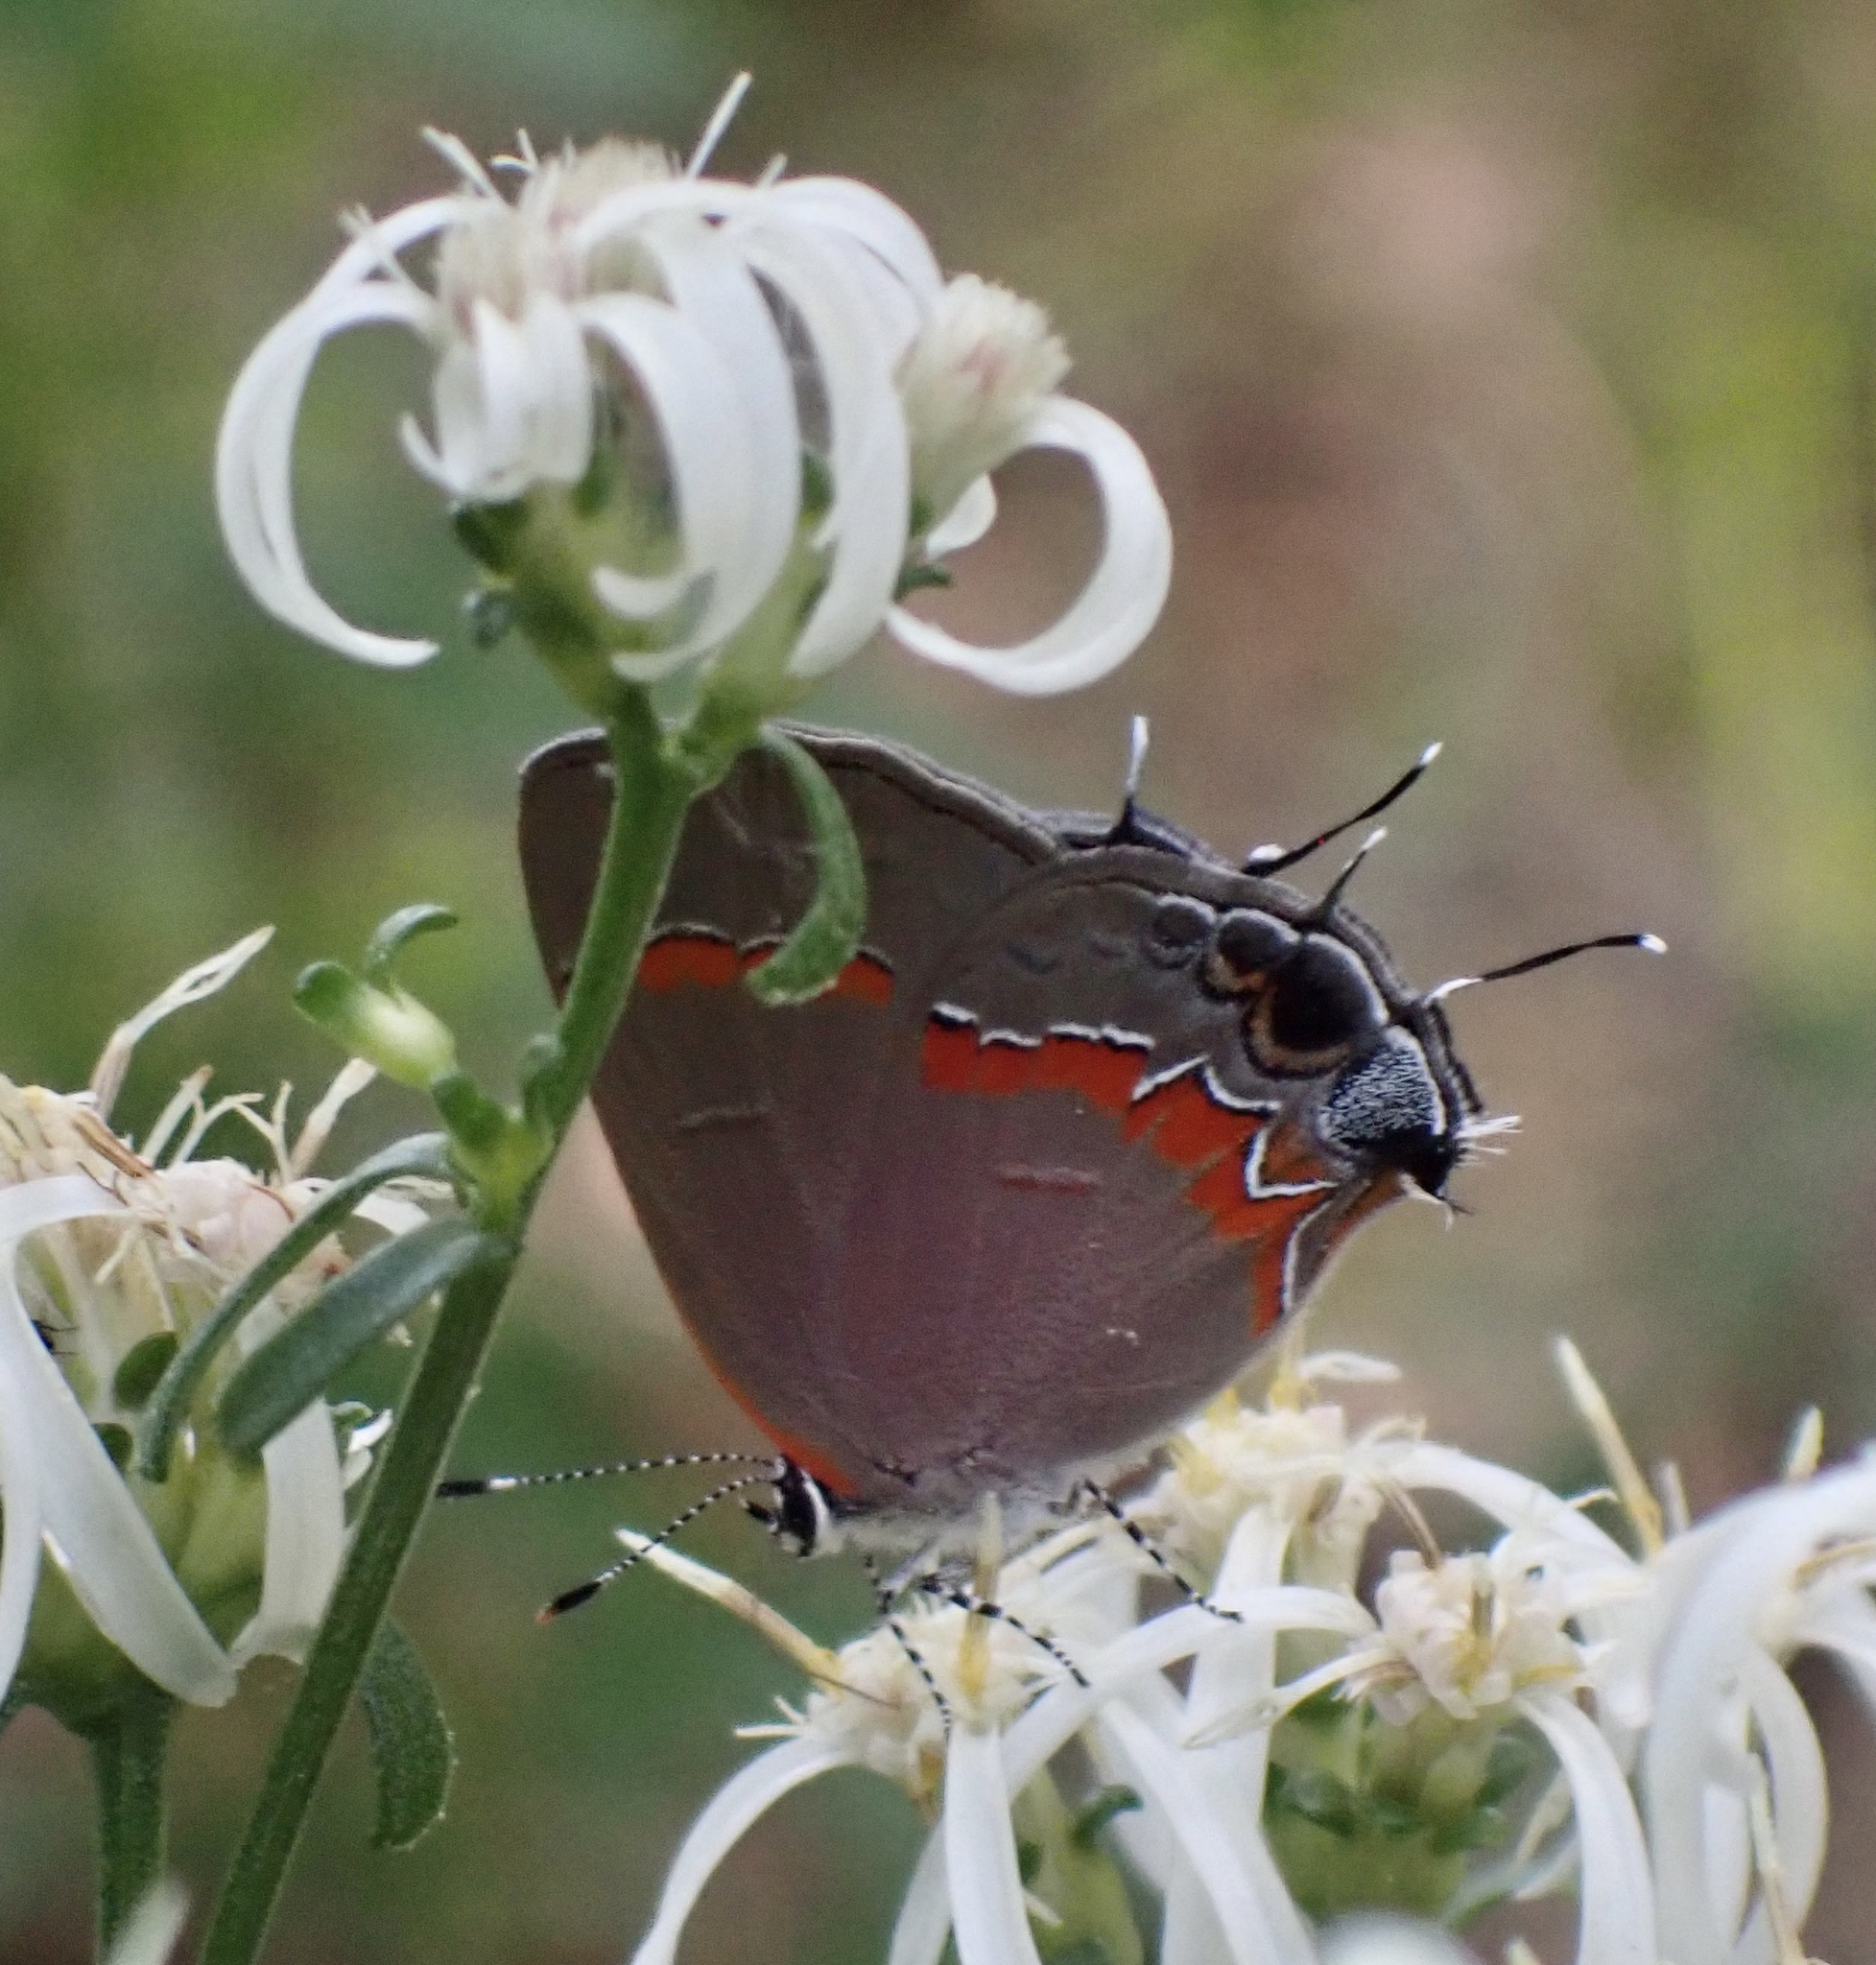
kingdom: Animalia
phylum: Arthropoda
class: Insecta
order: Lepidoptera
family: Lycaenidae
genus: Calycopis
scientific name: Calycopis cecrops
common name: Red-banded hairstreak
